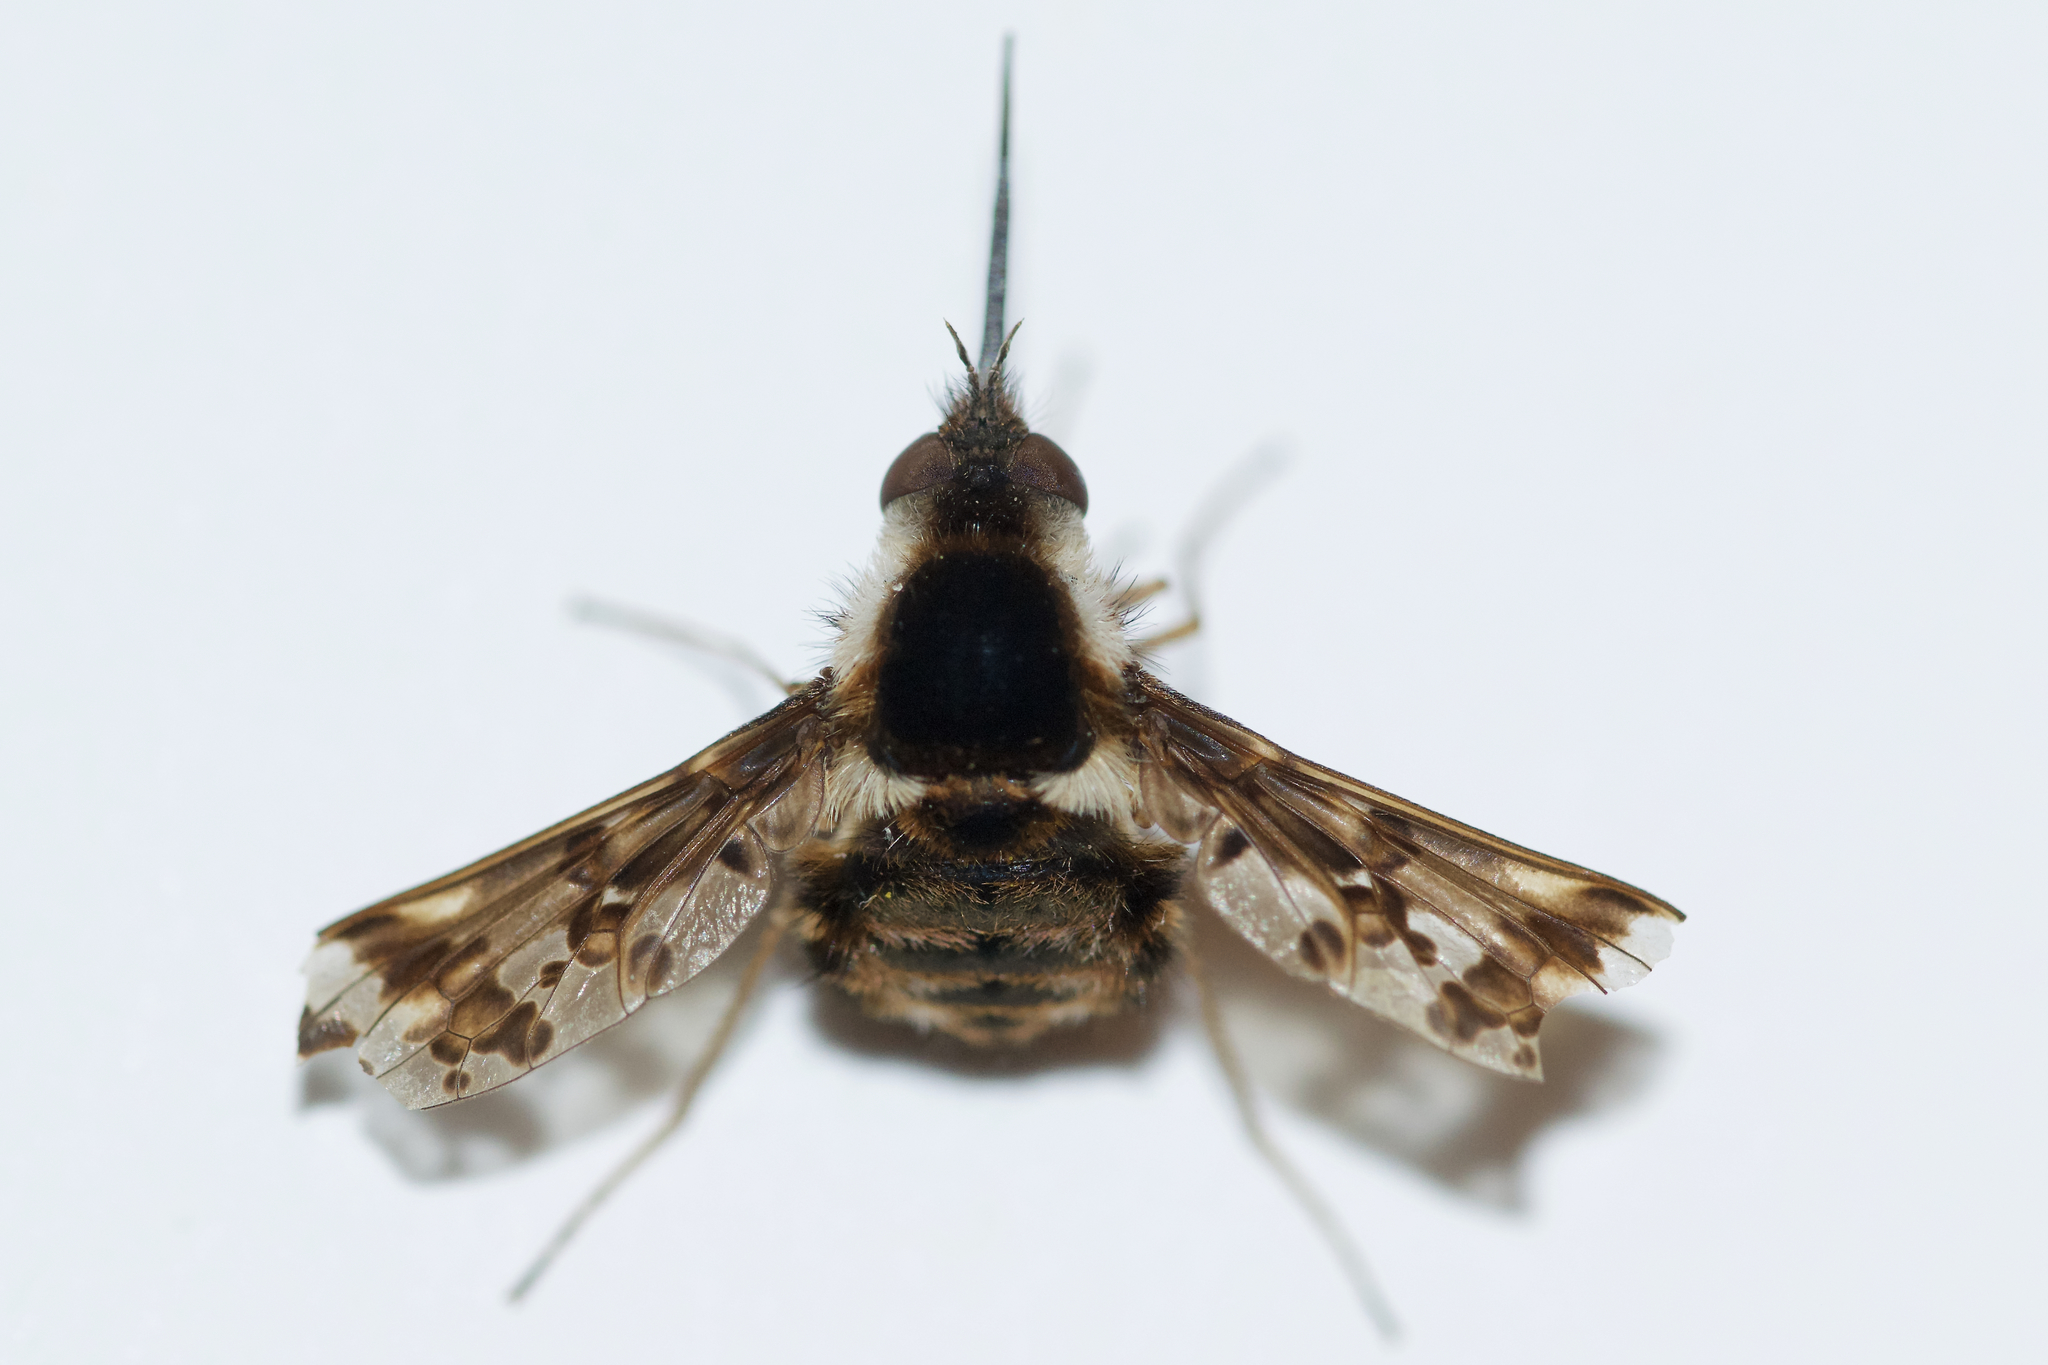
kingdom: Animalia
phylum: Arthropoda
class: Insecta
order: Diptera
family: Bombyliidae
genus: Bombylius
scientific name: Bombylius pulchellus
